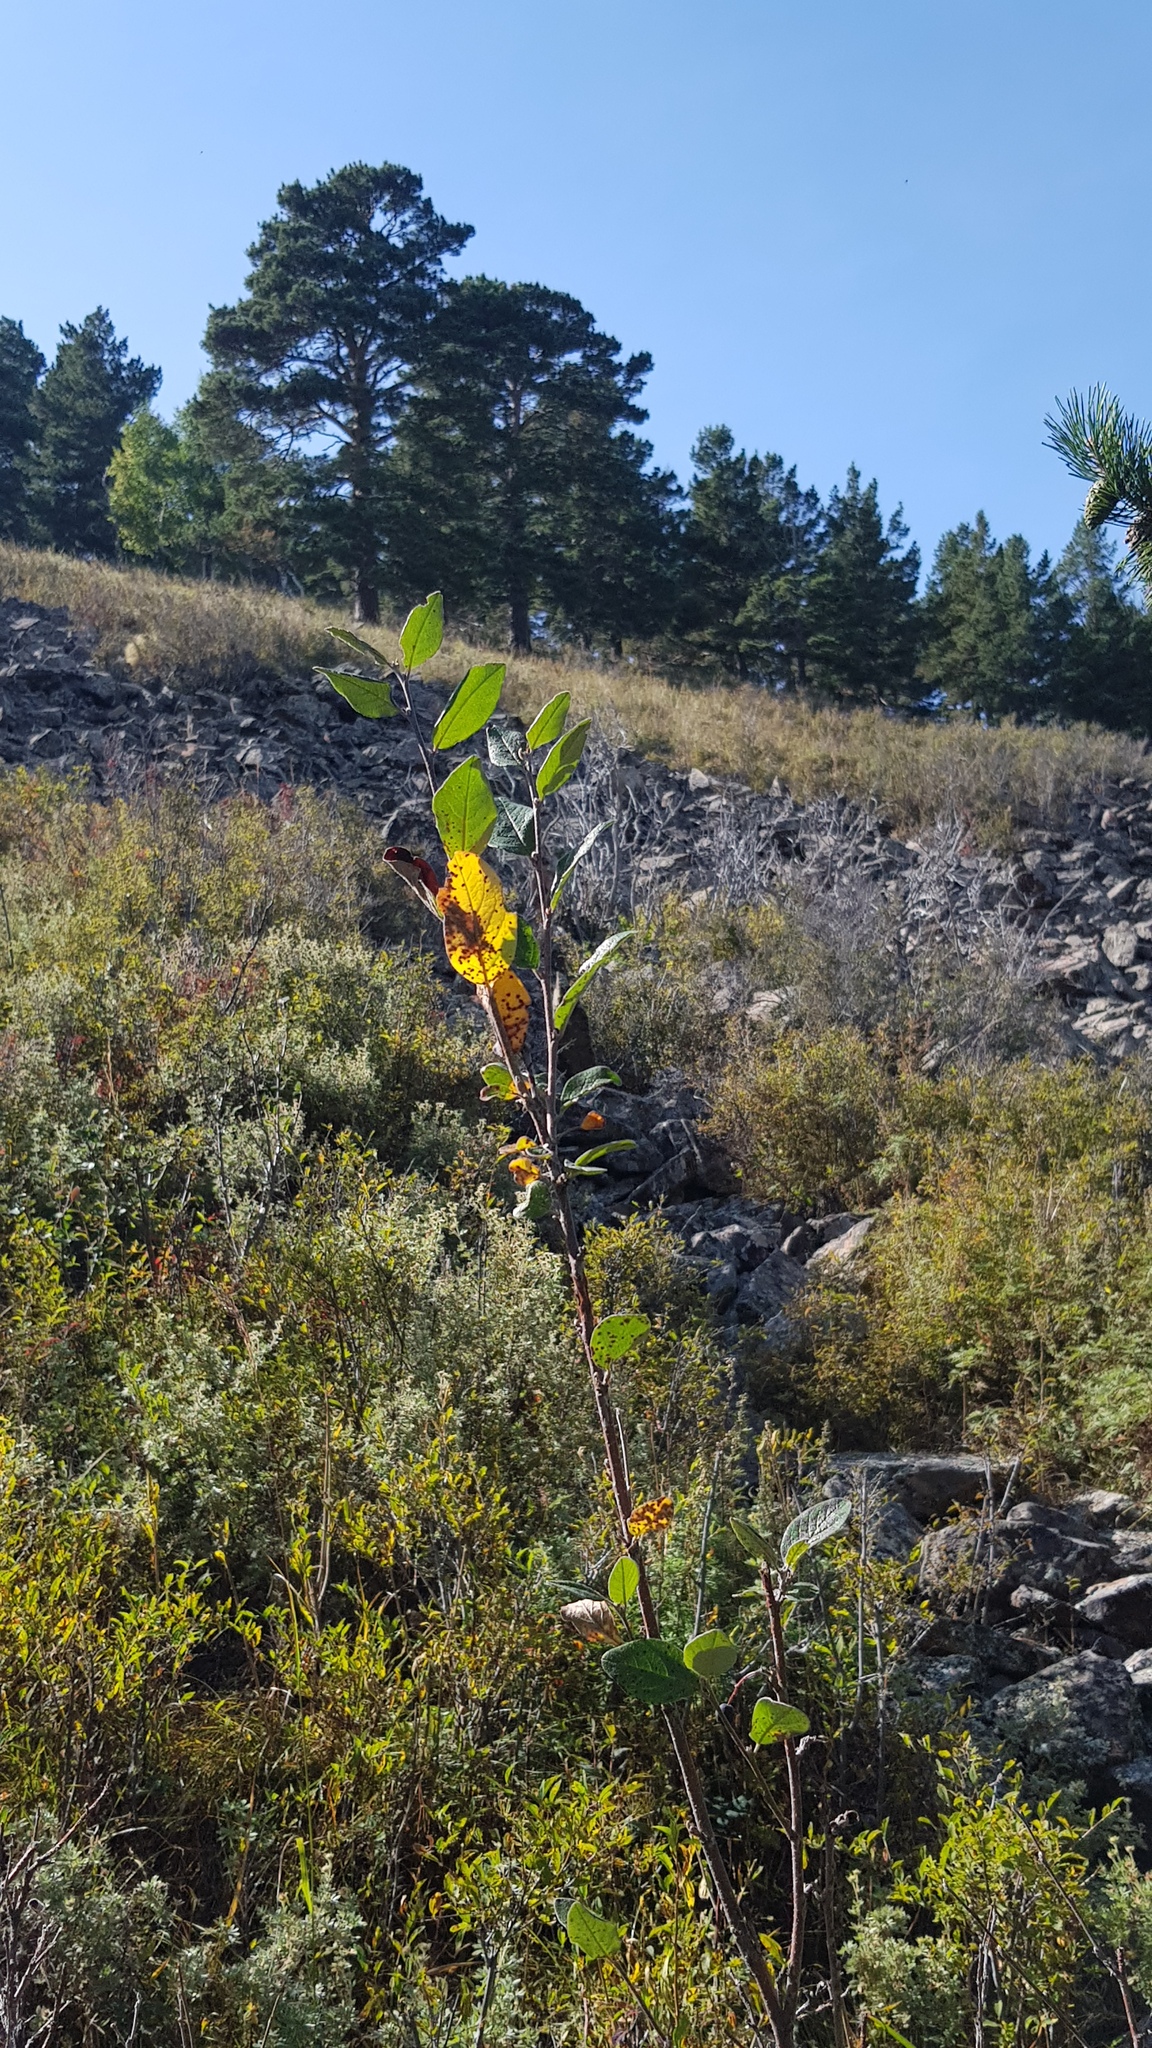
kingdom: Plantae
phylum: Tracheophyta
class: Pinopsida
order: Pinales
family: Pinaceae
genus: Pinus
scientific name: Pinus sylvestris
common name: Scots pine
